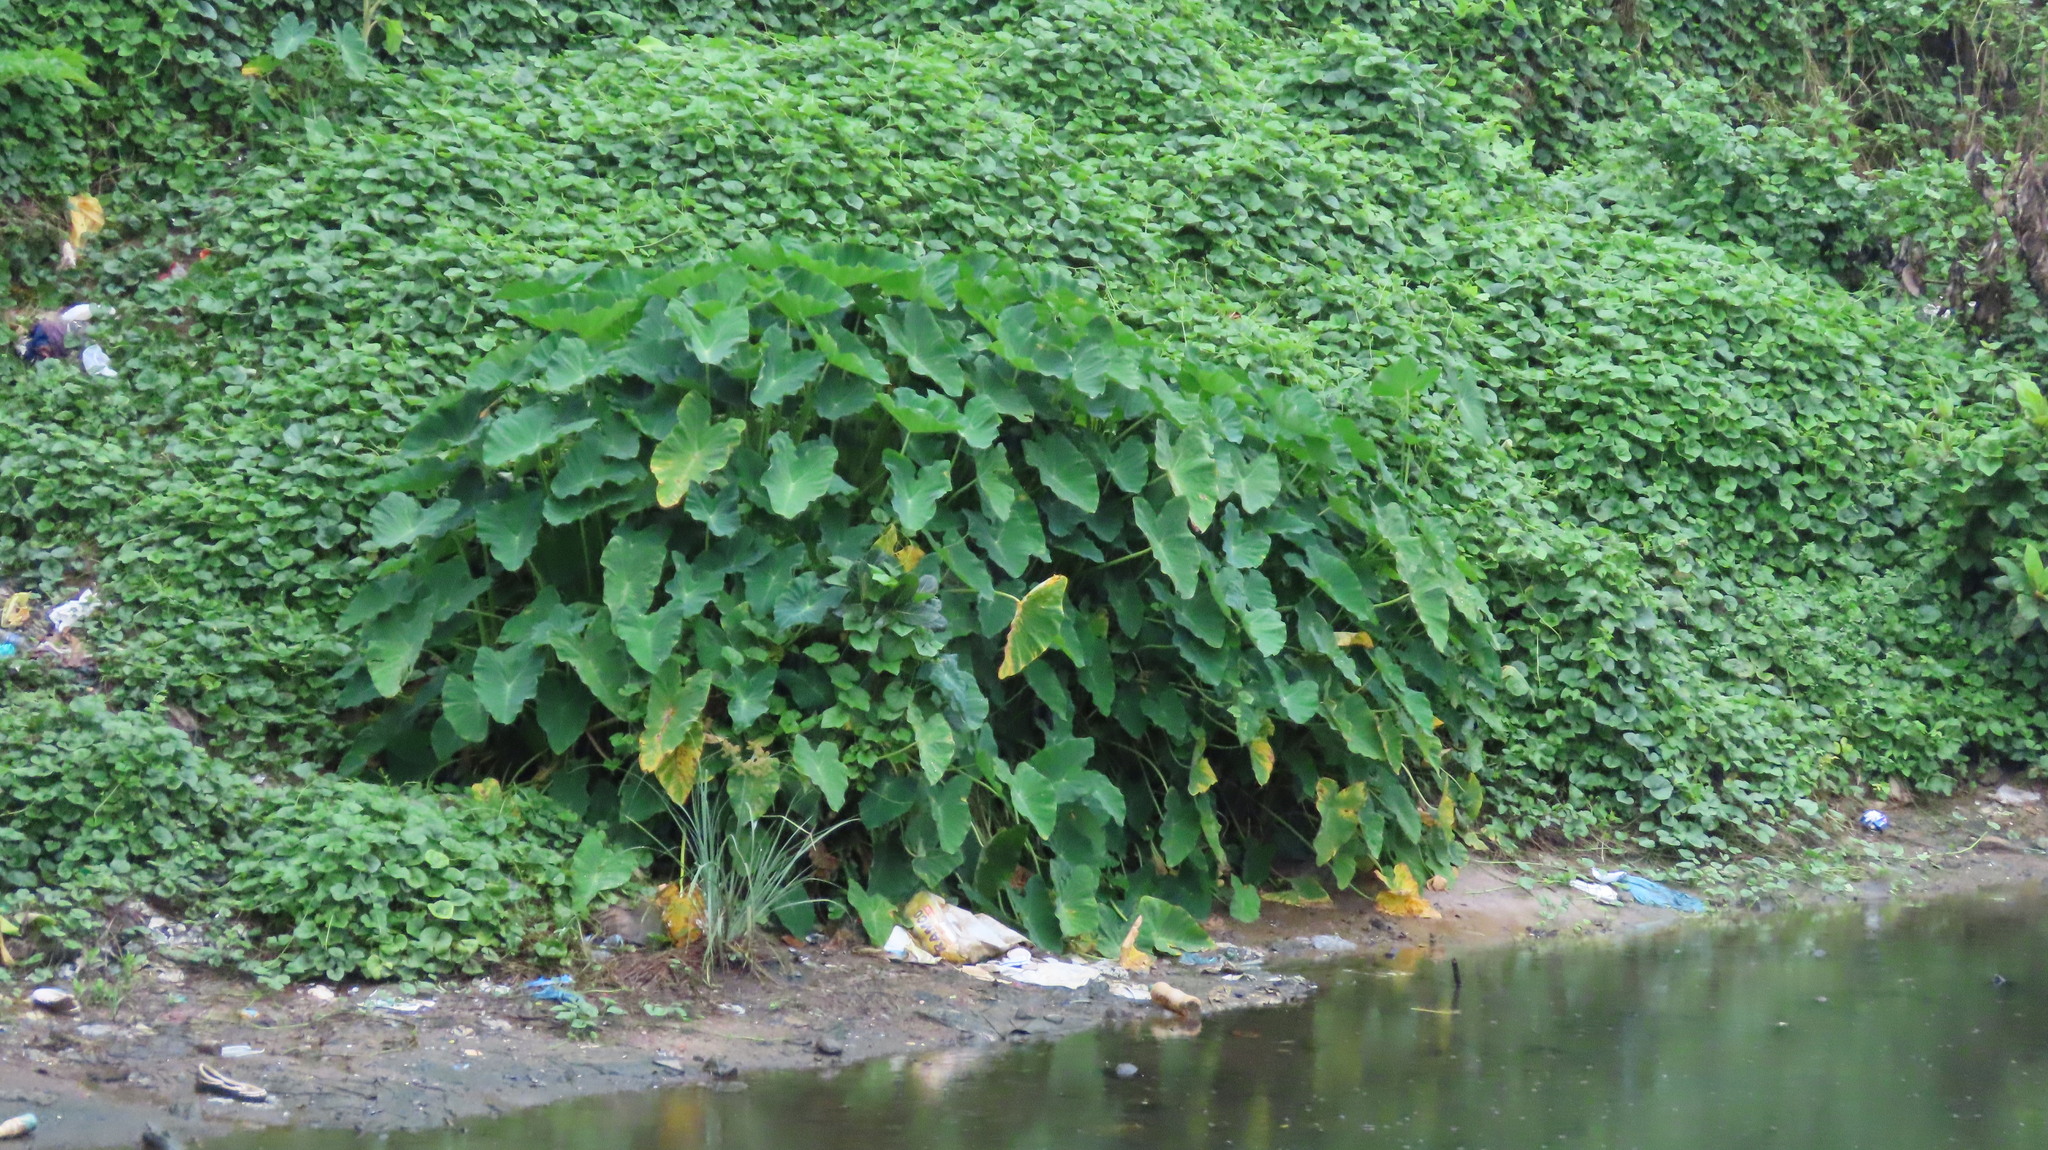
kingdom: Plantae
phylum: Tracheophyta
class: Liliopsida
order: Alismatales
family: Araceae
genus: Colocasia
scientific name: Colocasia esculenta
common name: Taro
